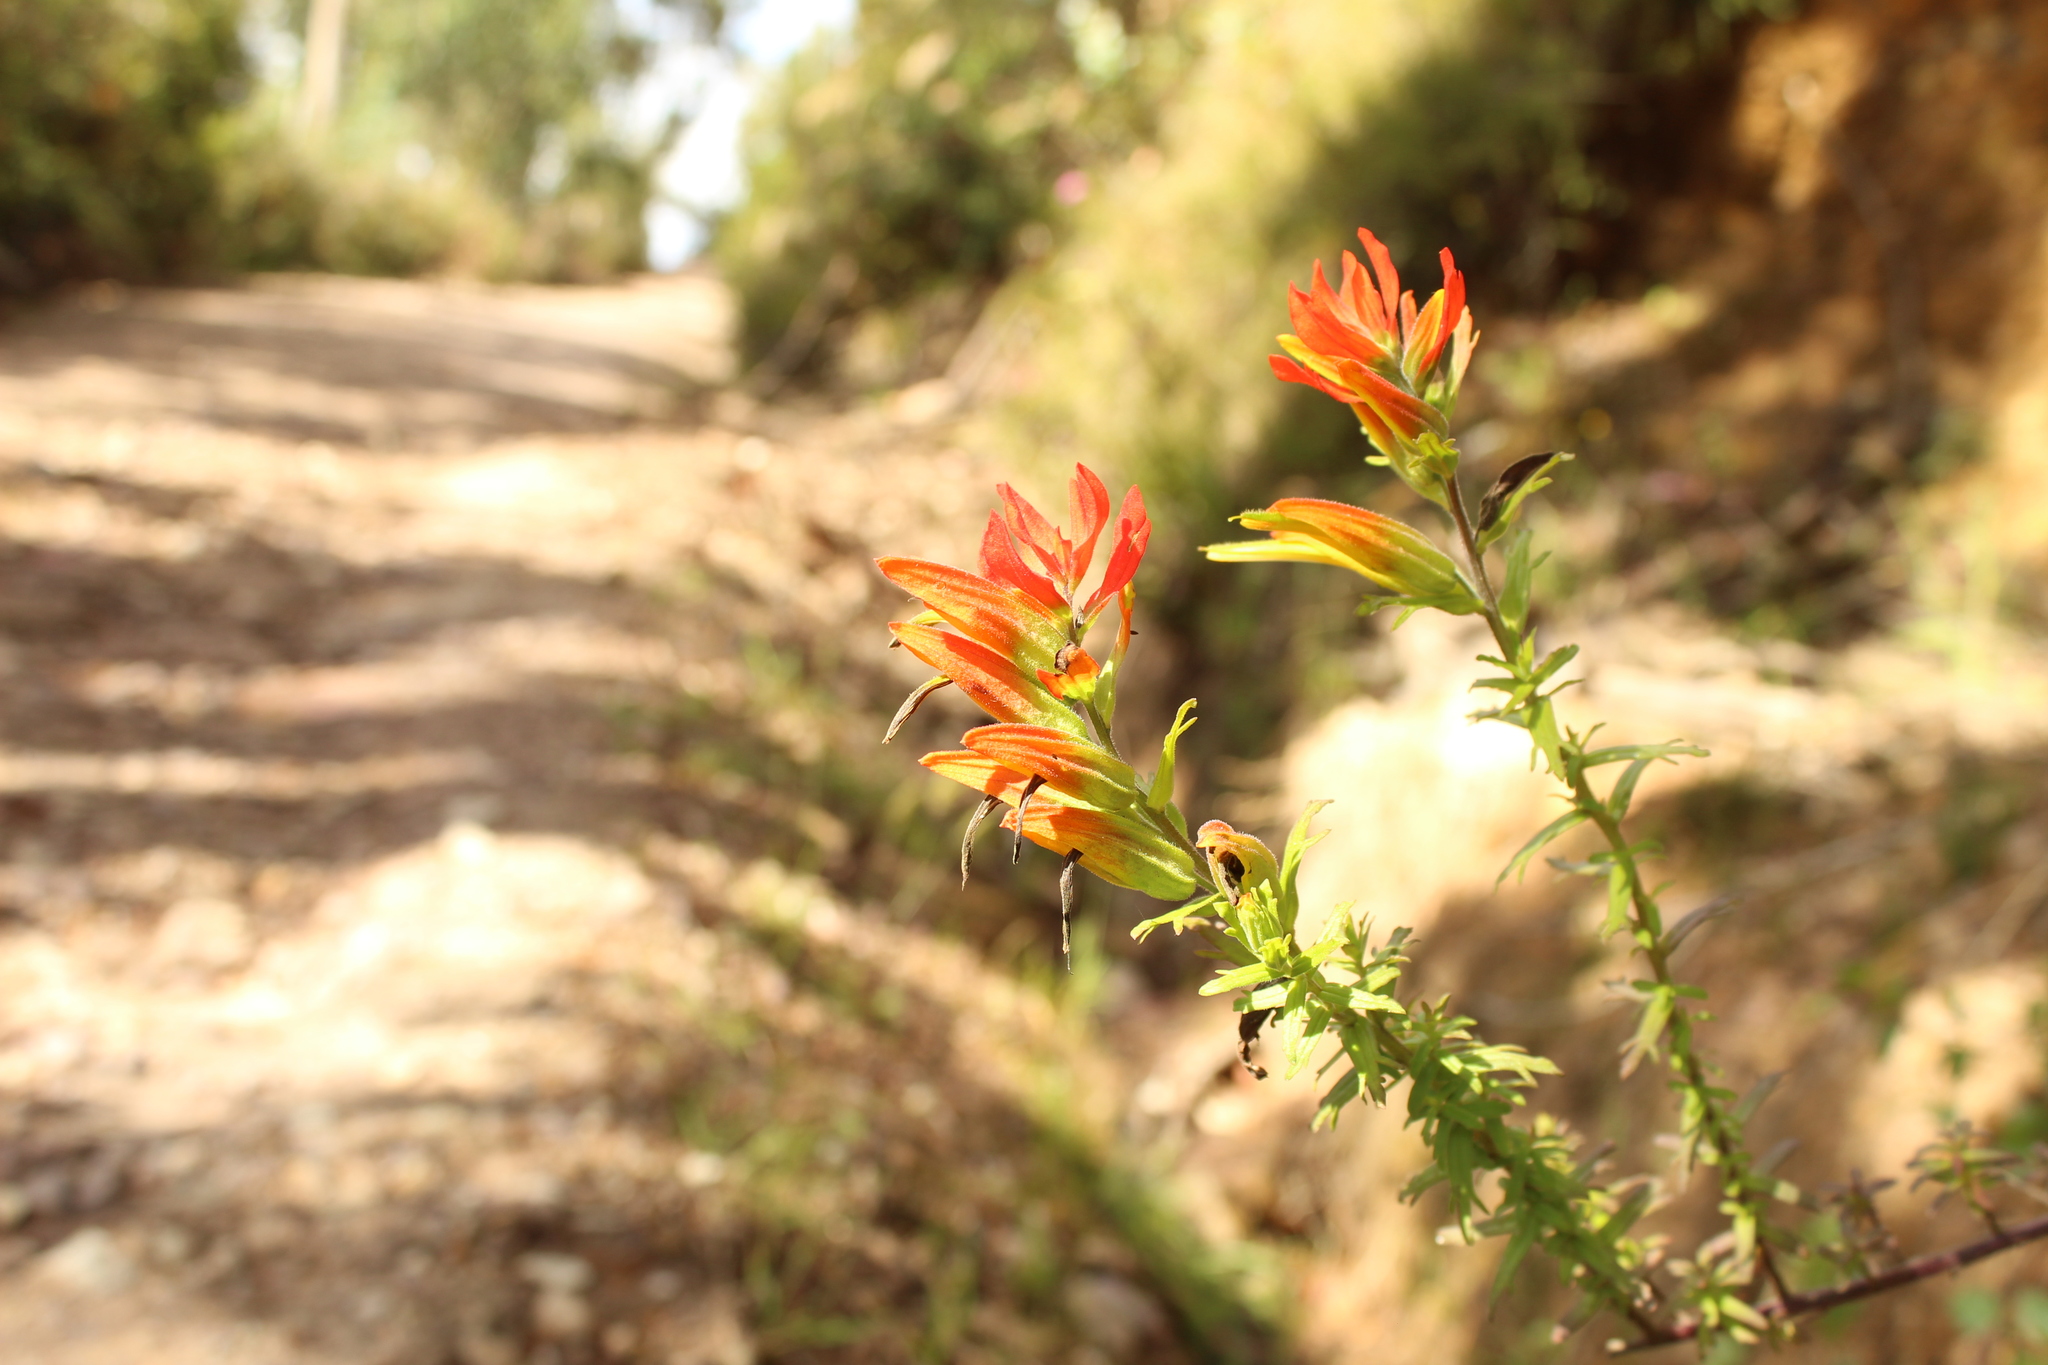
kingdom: Plantae
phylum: Tracheophyta
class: Magnoliopsida
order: Lamiales
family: Orobanchaceae
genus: Castilleja
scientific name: Castilleja fissifolia
